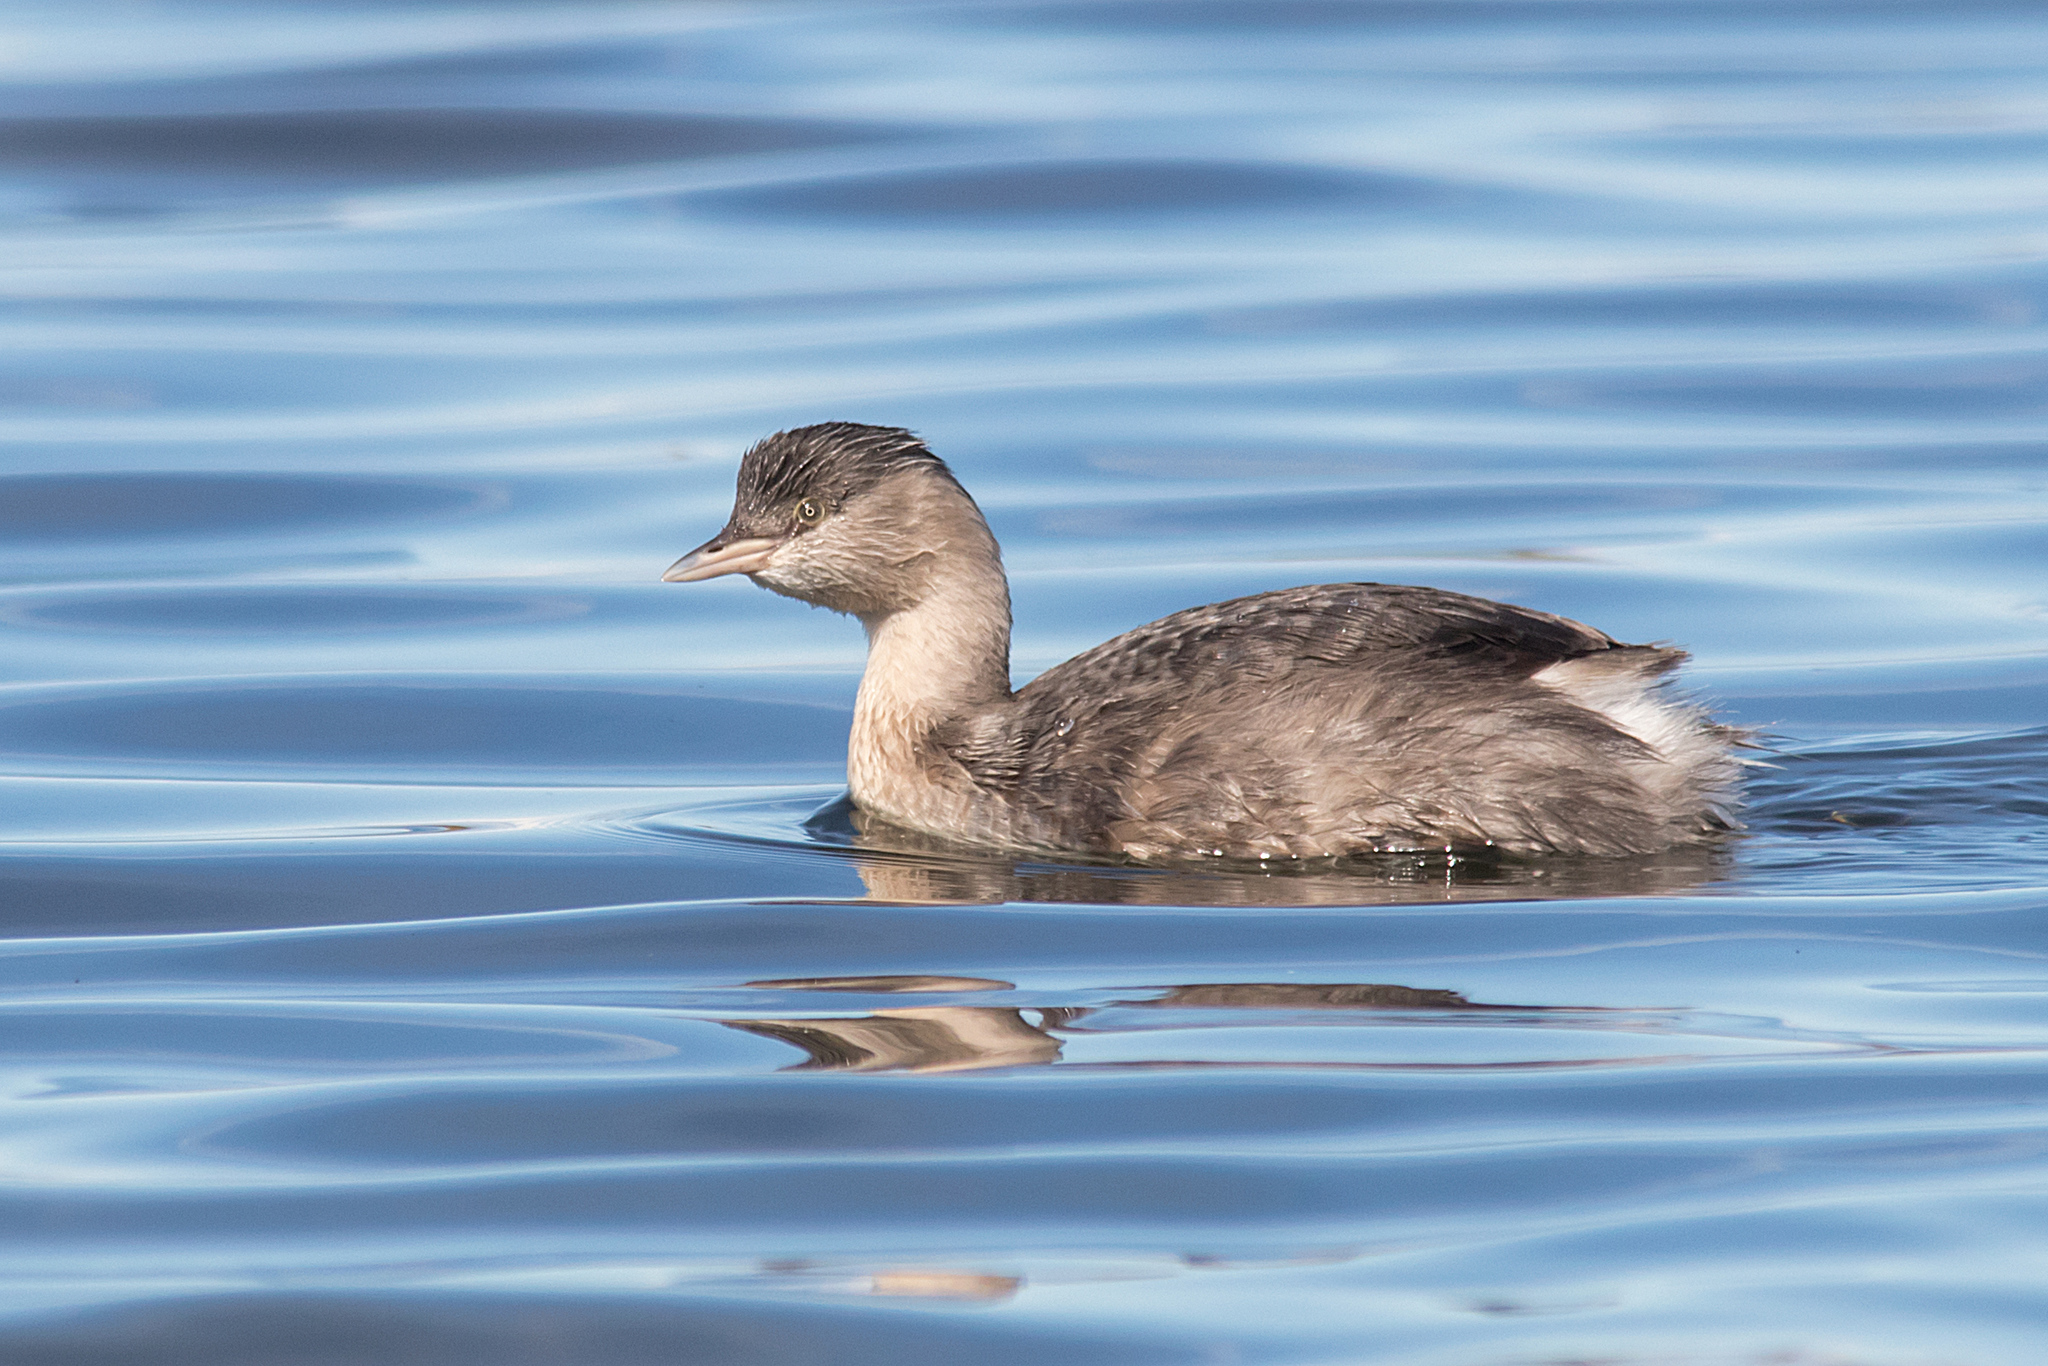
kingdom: Animalia
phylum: Chordata
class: Aves
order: Podicipediformes
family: Podicipedidae
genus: Poliocephalus
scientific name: Poliocephalus poliocephalus
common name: Hoary-headed grebe
